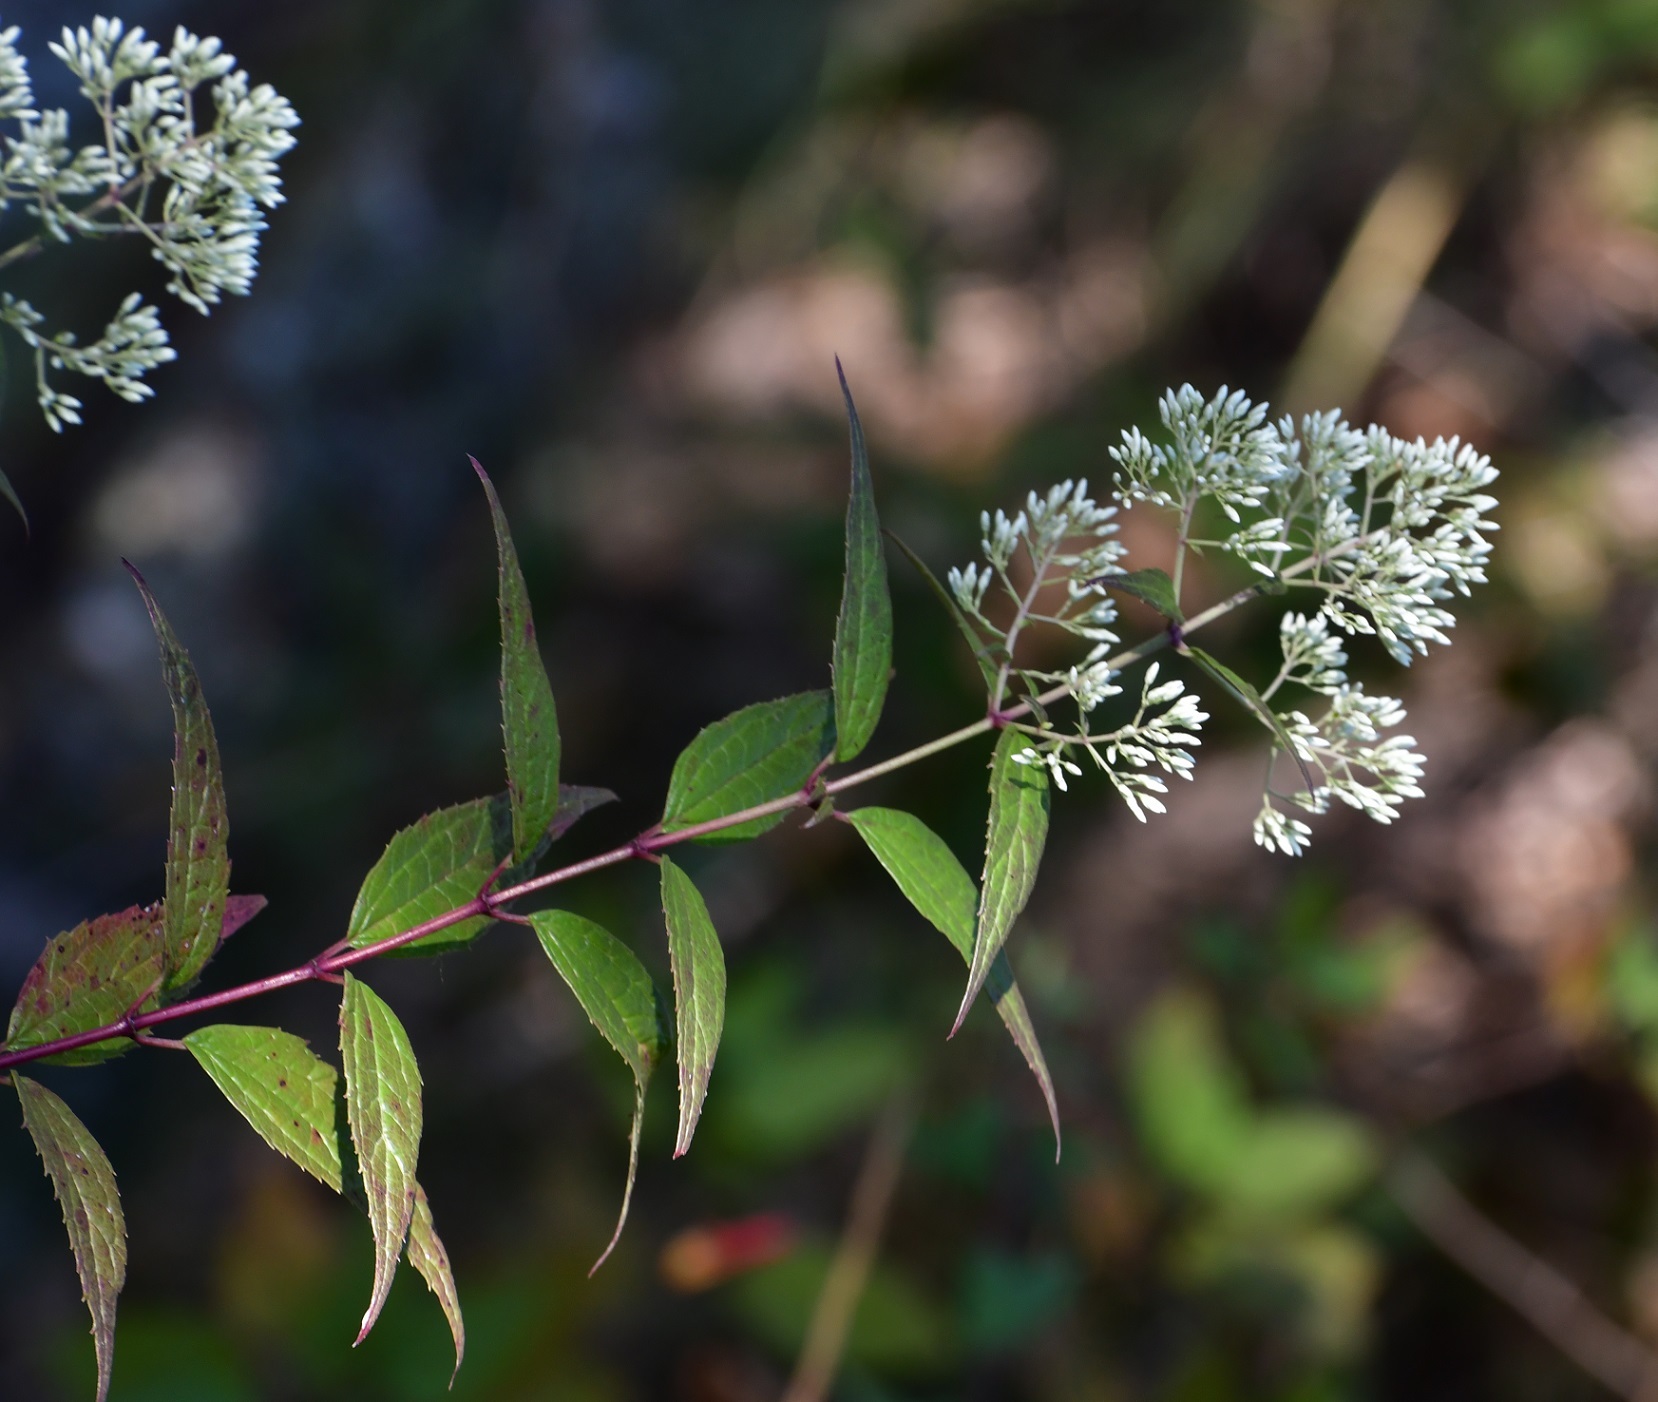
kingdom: Plantae
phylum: Tracheophyta
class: Magnoliopsida
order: Asterales
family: Asteraceae
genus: Critonia
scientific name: Critonia conzattii
